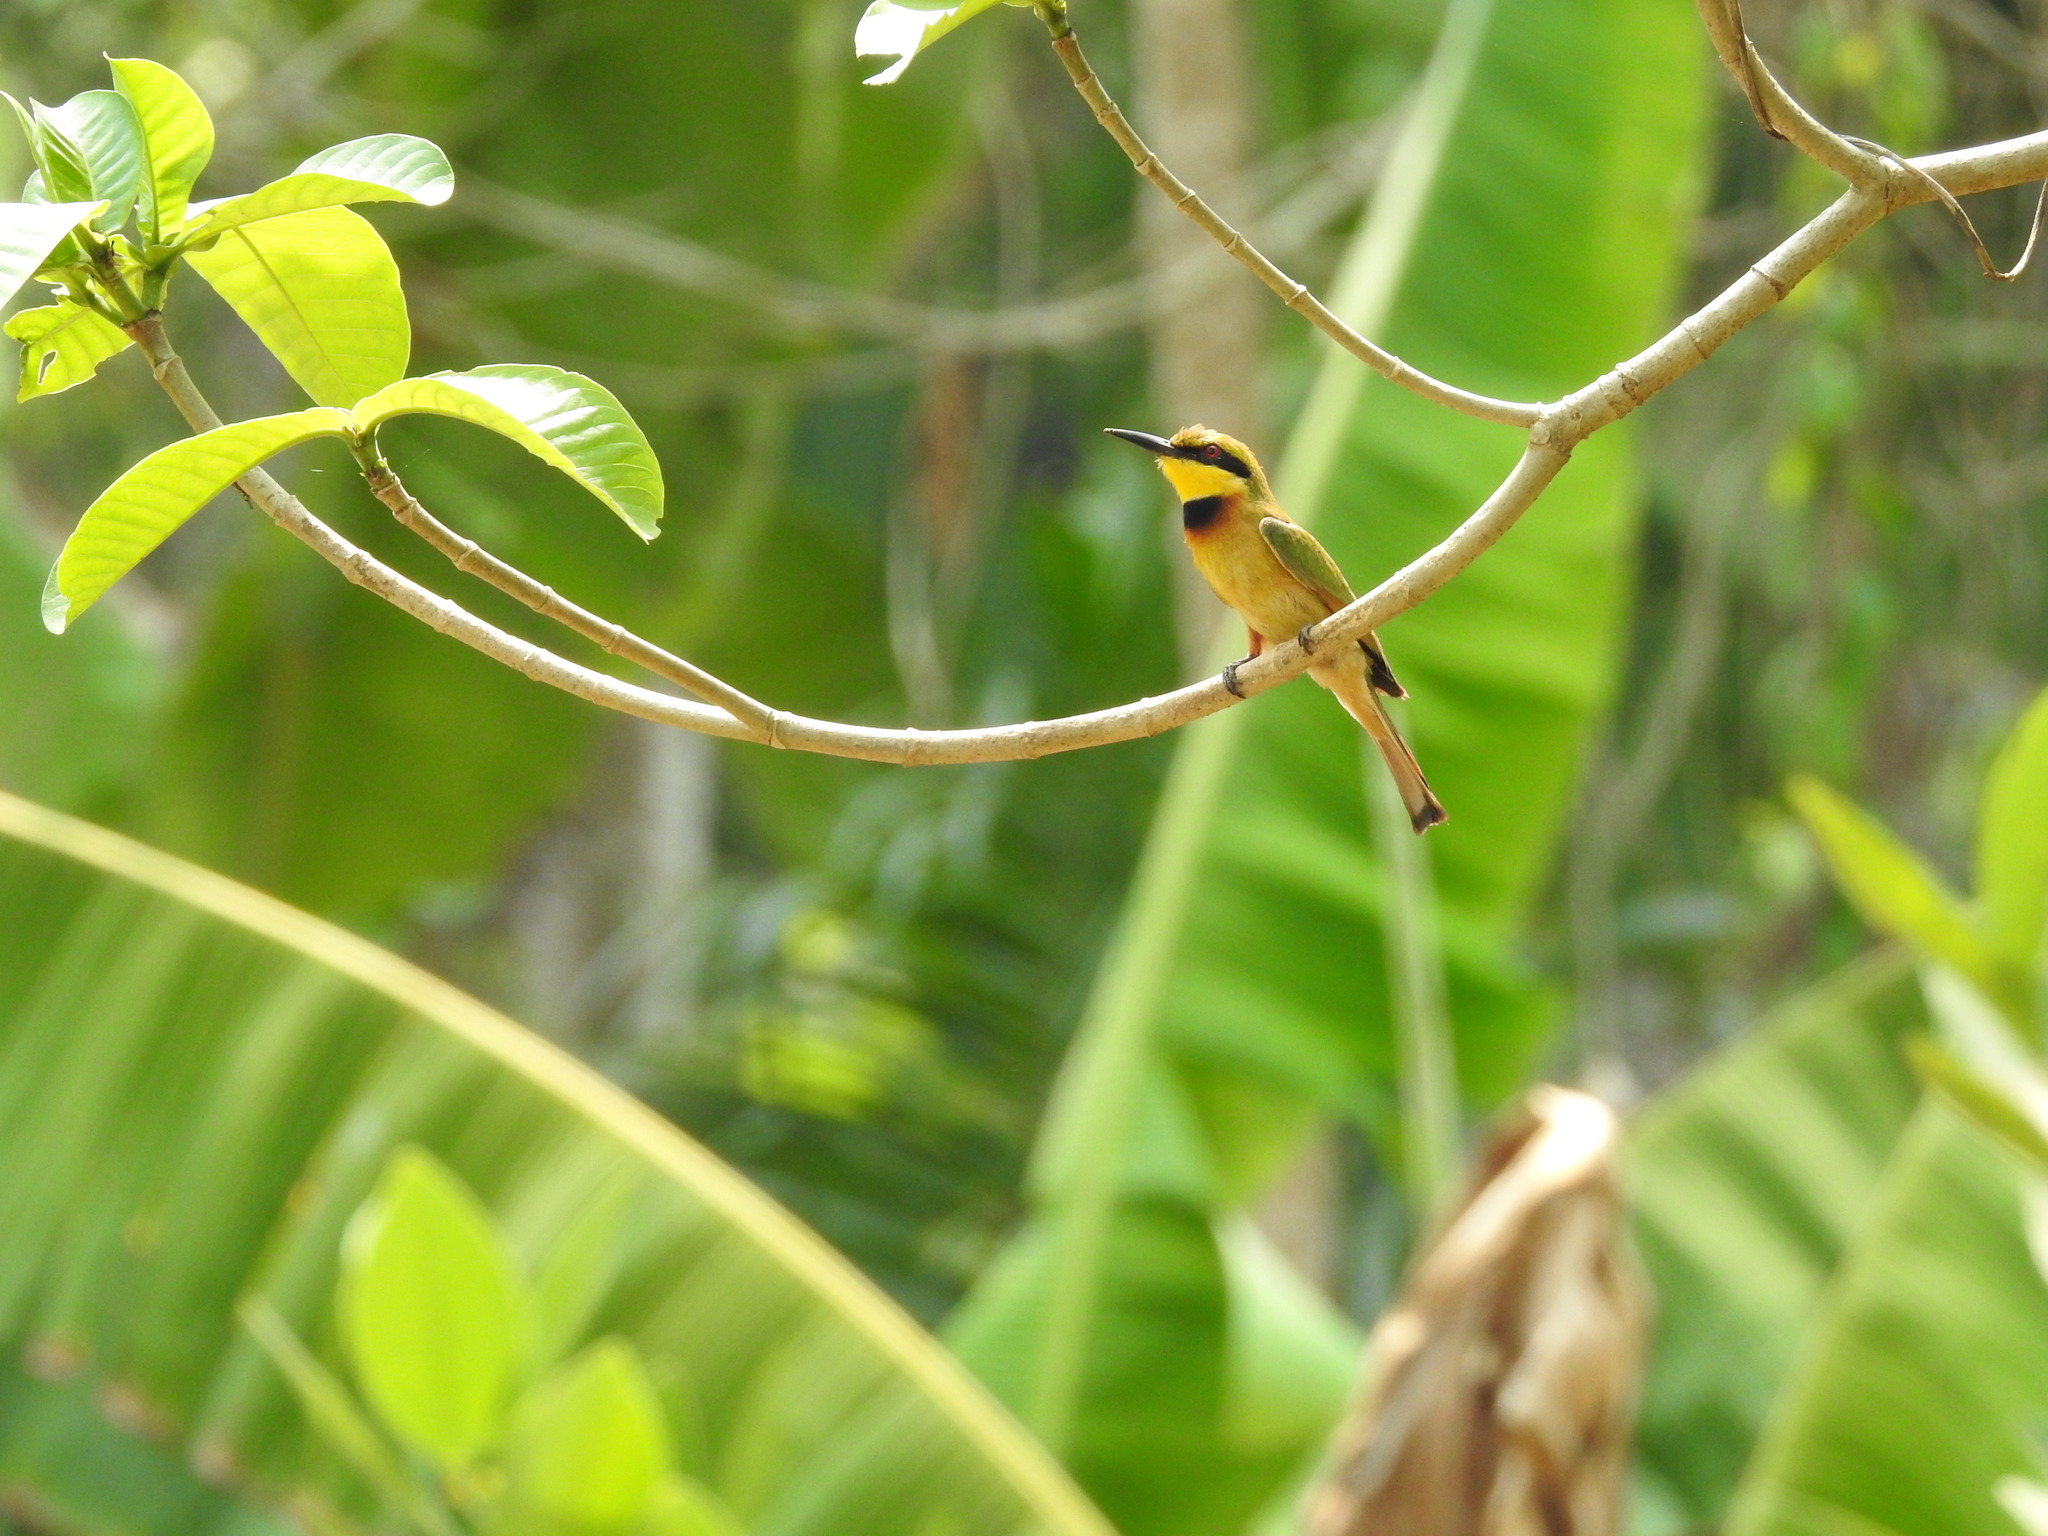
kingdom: Animalia
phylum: Chordata
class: Aves
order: Coraciiformes
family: Meropidae
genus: Merops
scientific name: Merops pusillus
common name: Little bee-eater
